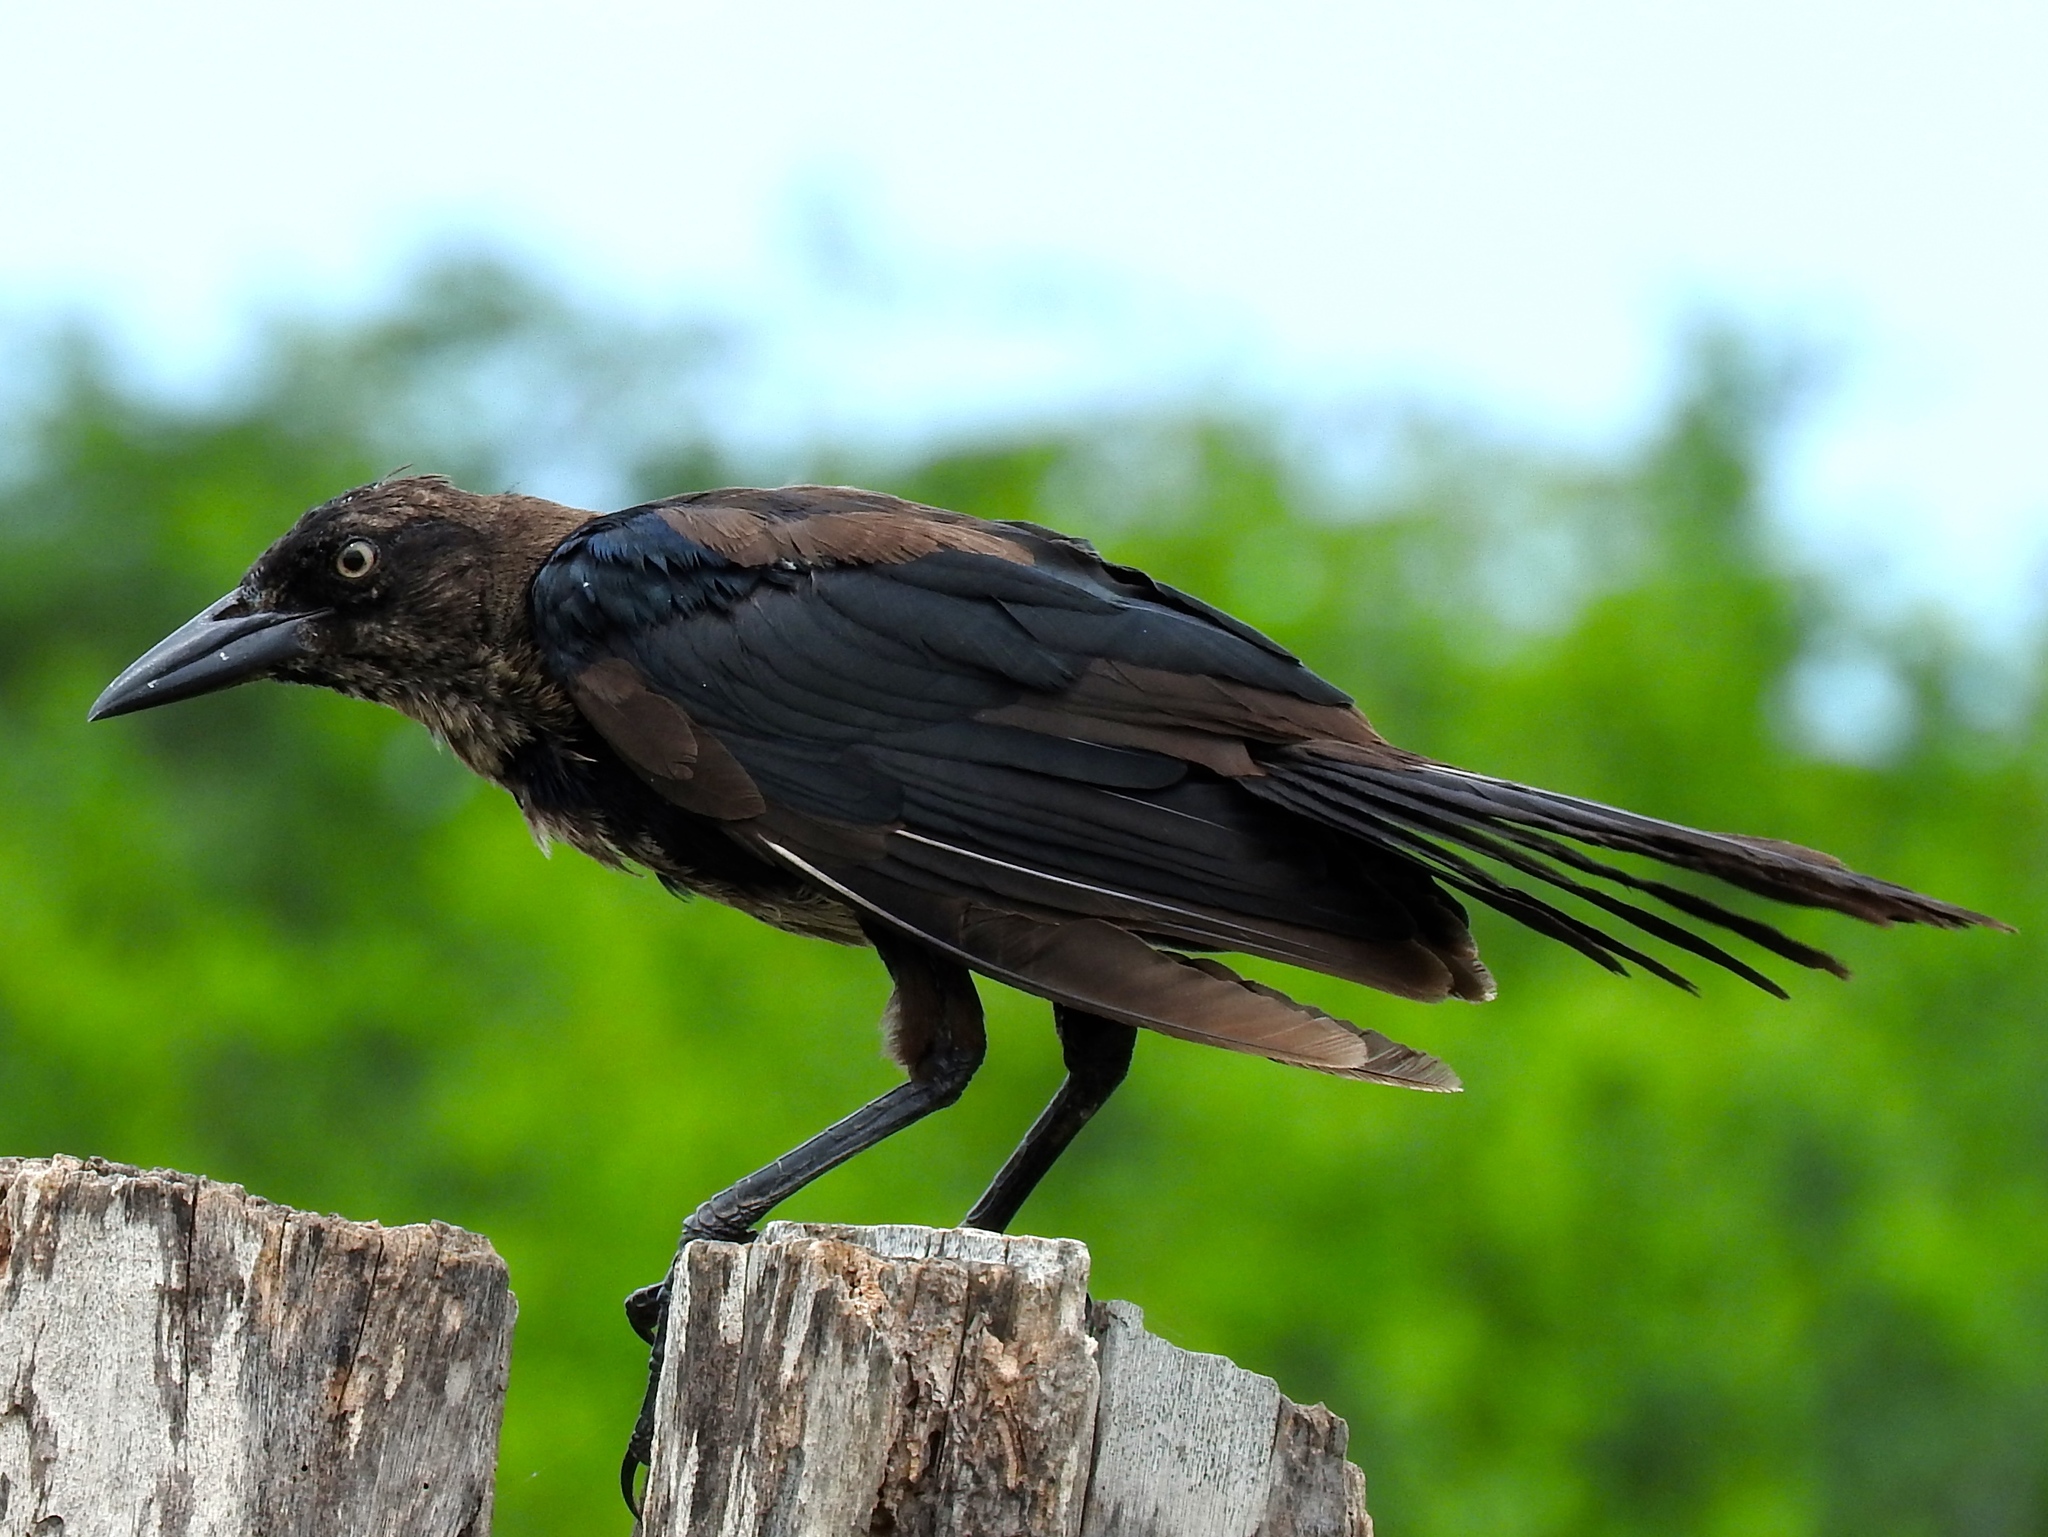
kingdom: Animalia
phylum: Chordata
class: Aves
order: Passeriformes
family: Icteridae
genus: Quiscalus
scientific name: Quiscalus mexicanus
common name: Great-tailed grackle
